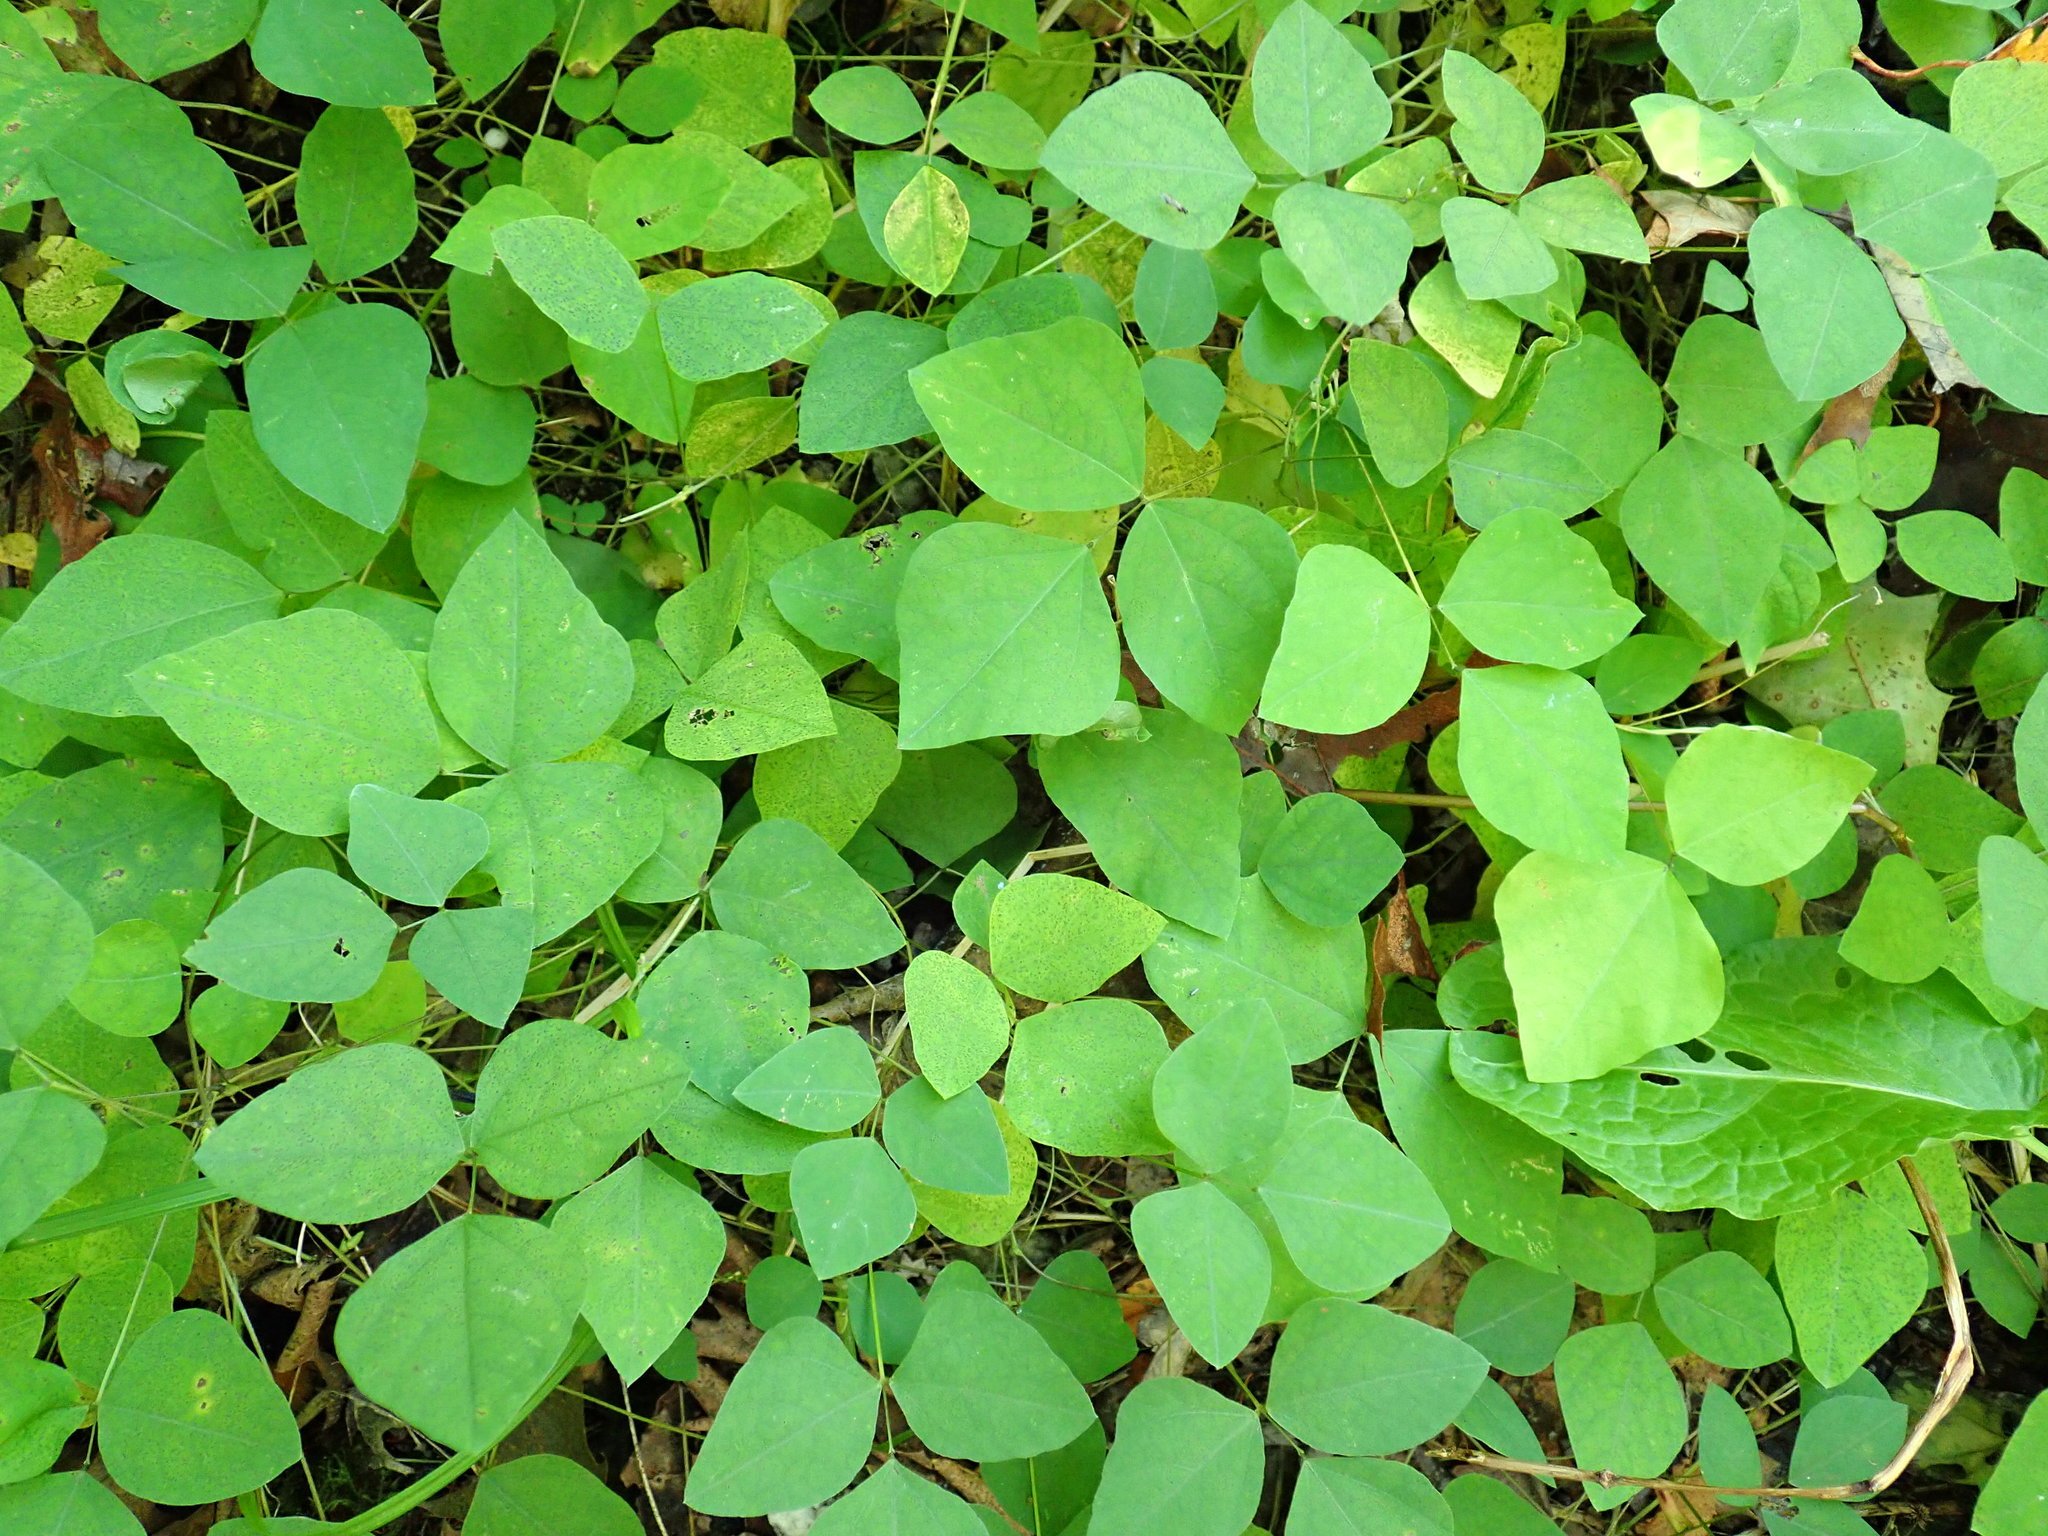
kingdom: Plantae
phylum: Tracheophyta
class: Magnoliopsida
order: Fabales
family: Fabaceae
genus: Amphicarpaea
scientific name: Amphicarpaea bracteata
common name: American hog peanut
